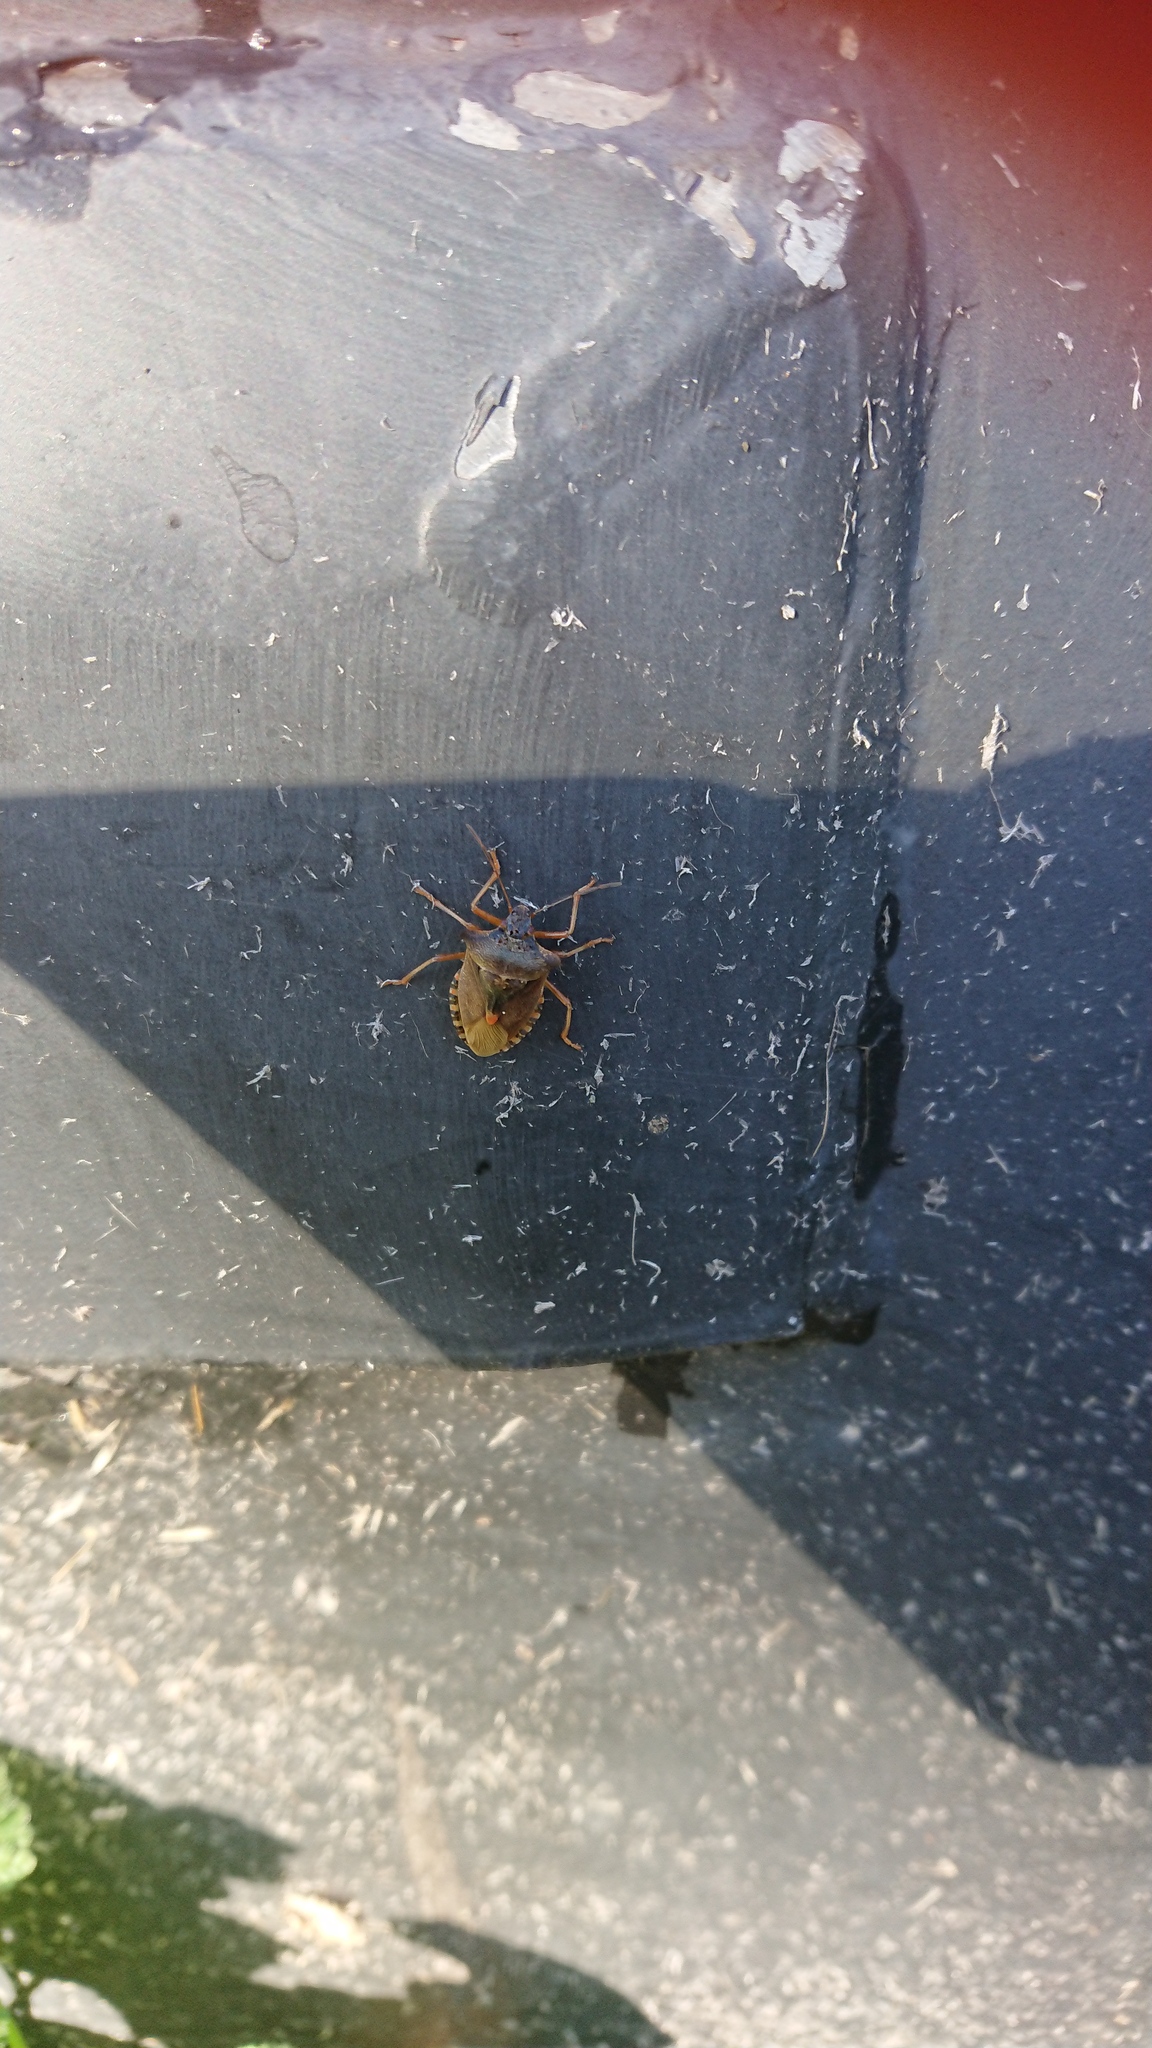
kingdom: Animalia
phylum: Arthropoda
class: Insecta
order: Hemiptera
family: Pentatomidae
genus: Pentatoma
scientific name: Pentatoma rufipes
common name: Forest bug
